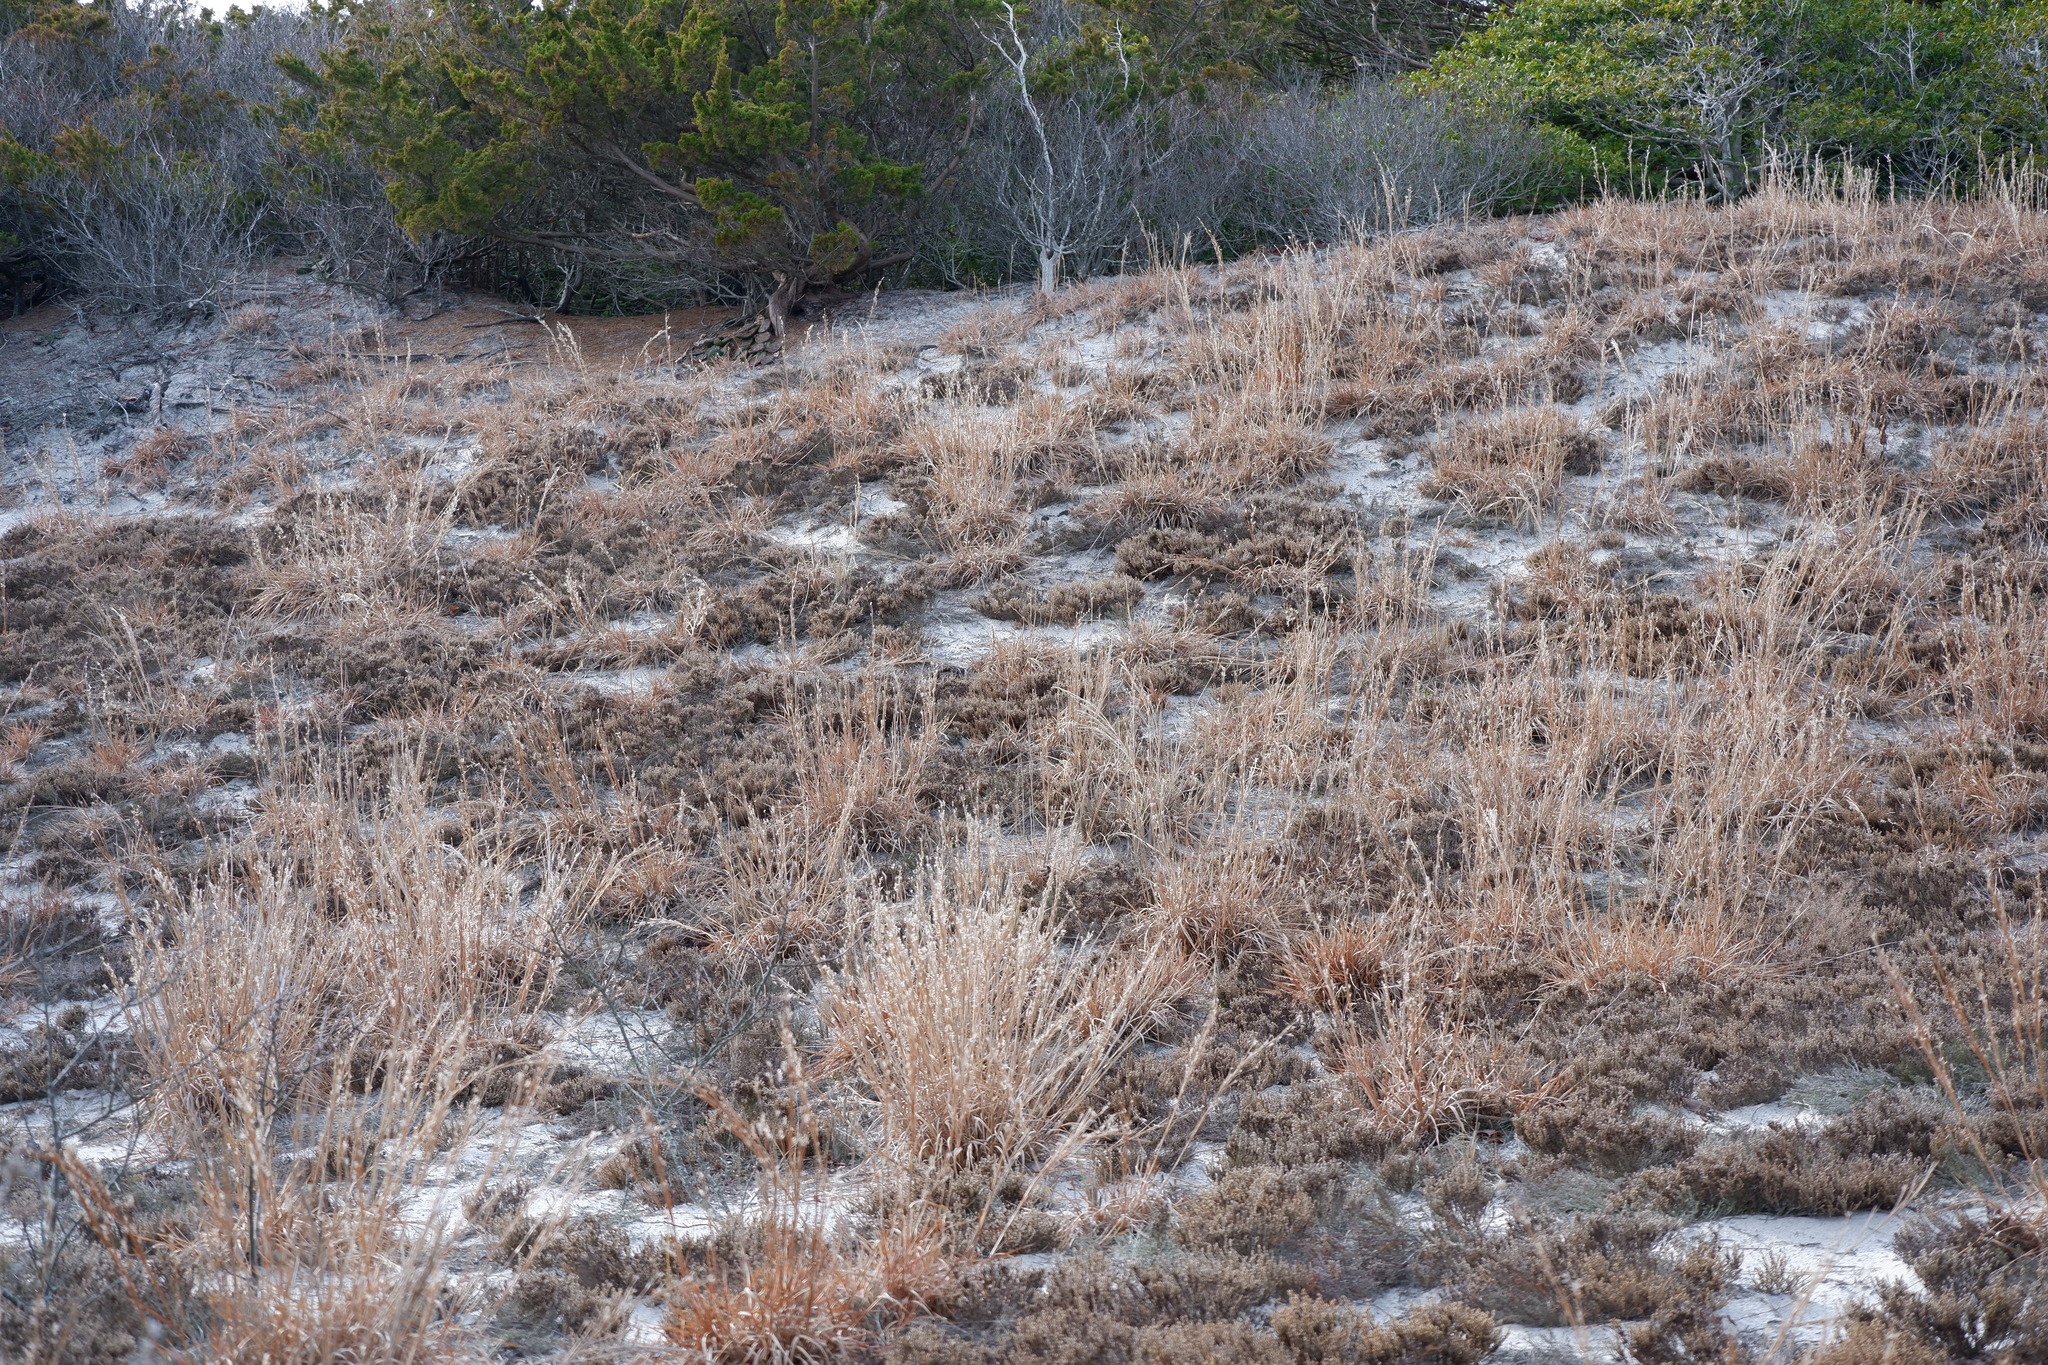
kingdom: Plantae
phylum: Tracheophyta
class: Liliopsida
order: Poales
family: Poaceae
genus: Schizachyrium
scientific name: Schizachyrium scoparium
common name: Little bluestem
